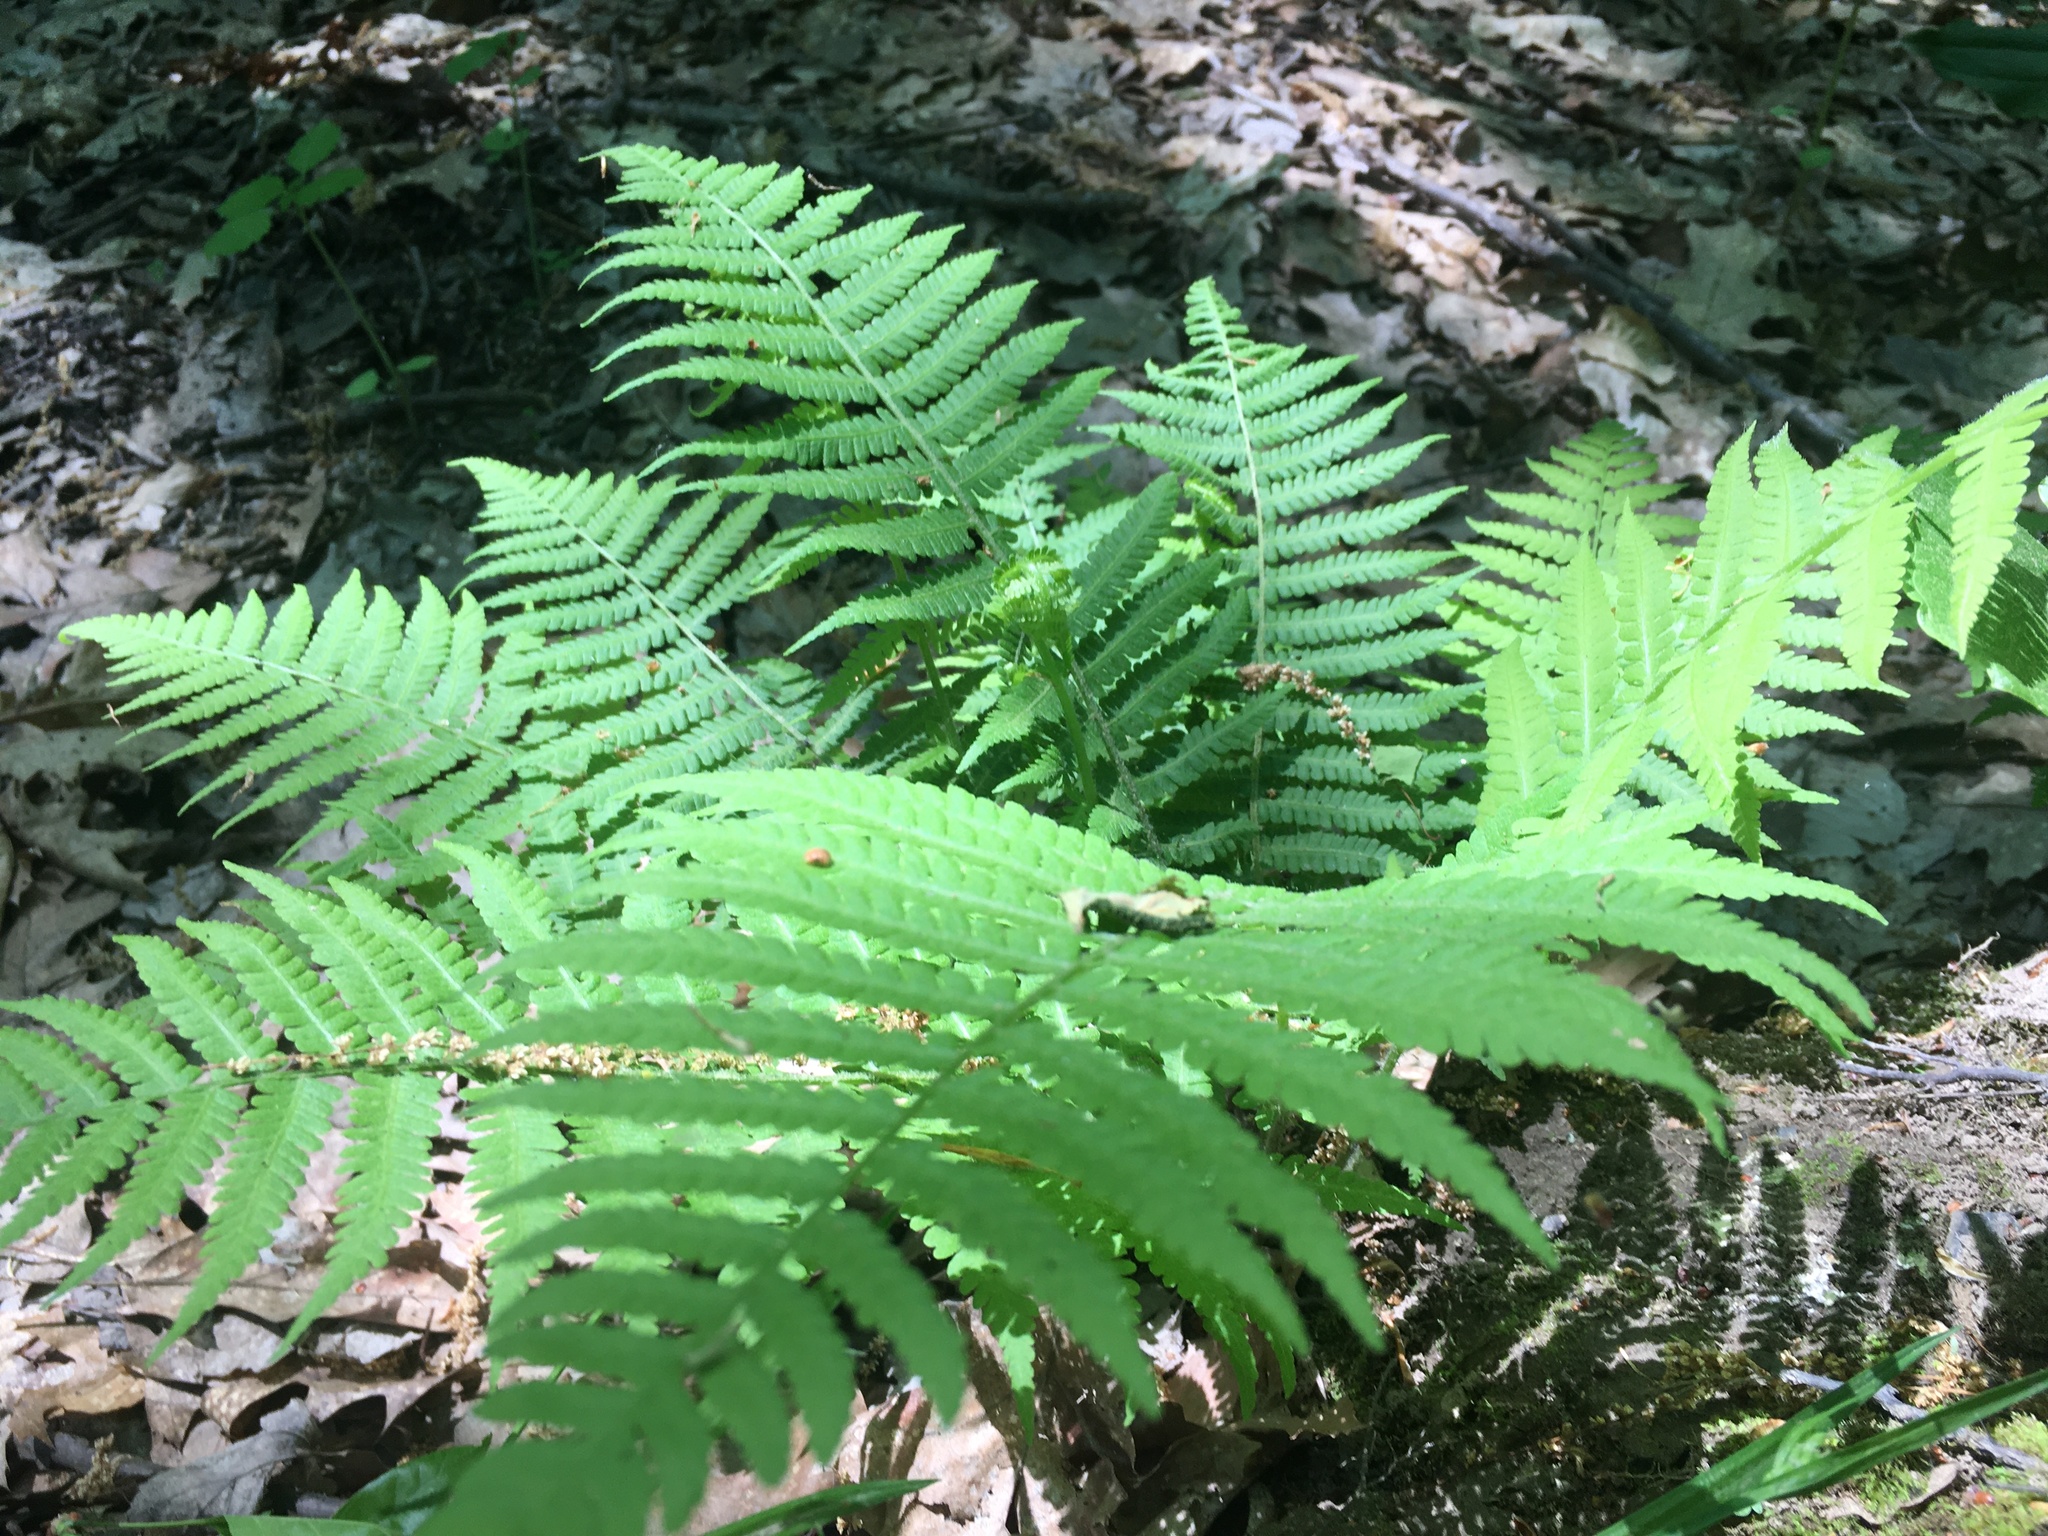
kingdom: Plantae
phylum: Tracheophyta
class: Polypodiopsida
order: Polypodiales
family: Thelypteridaceae
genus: Amauropelta
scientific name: Amauropelta noveboracensis
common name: New york fern
